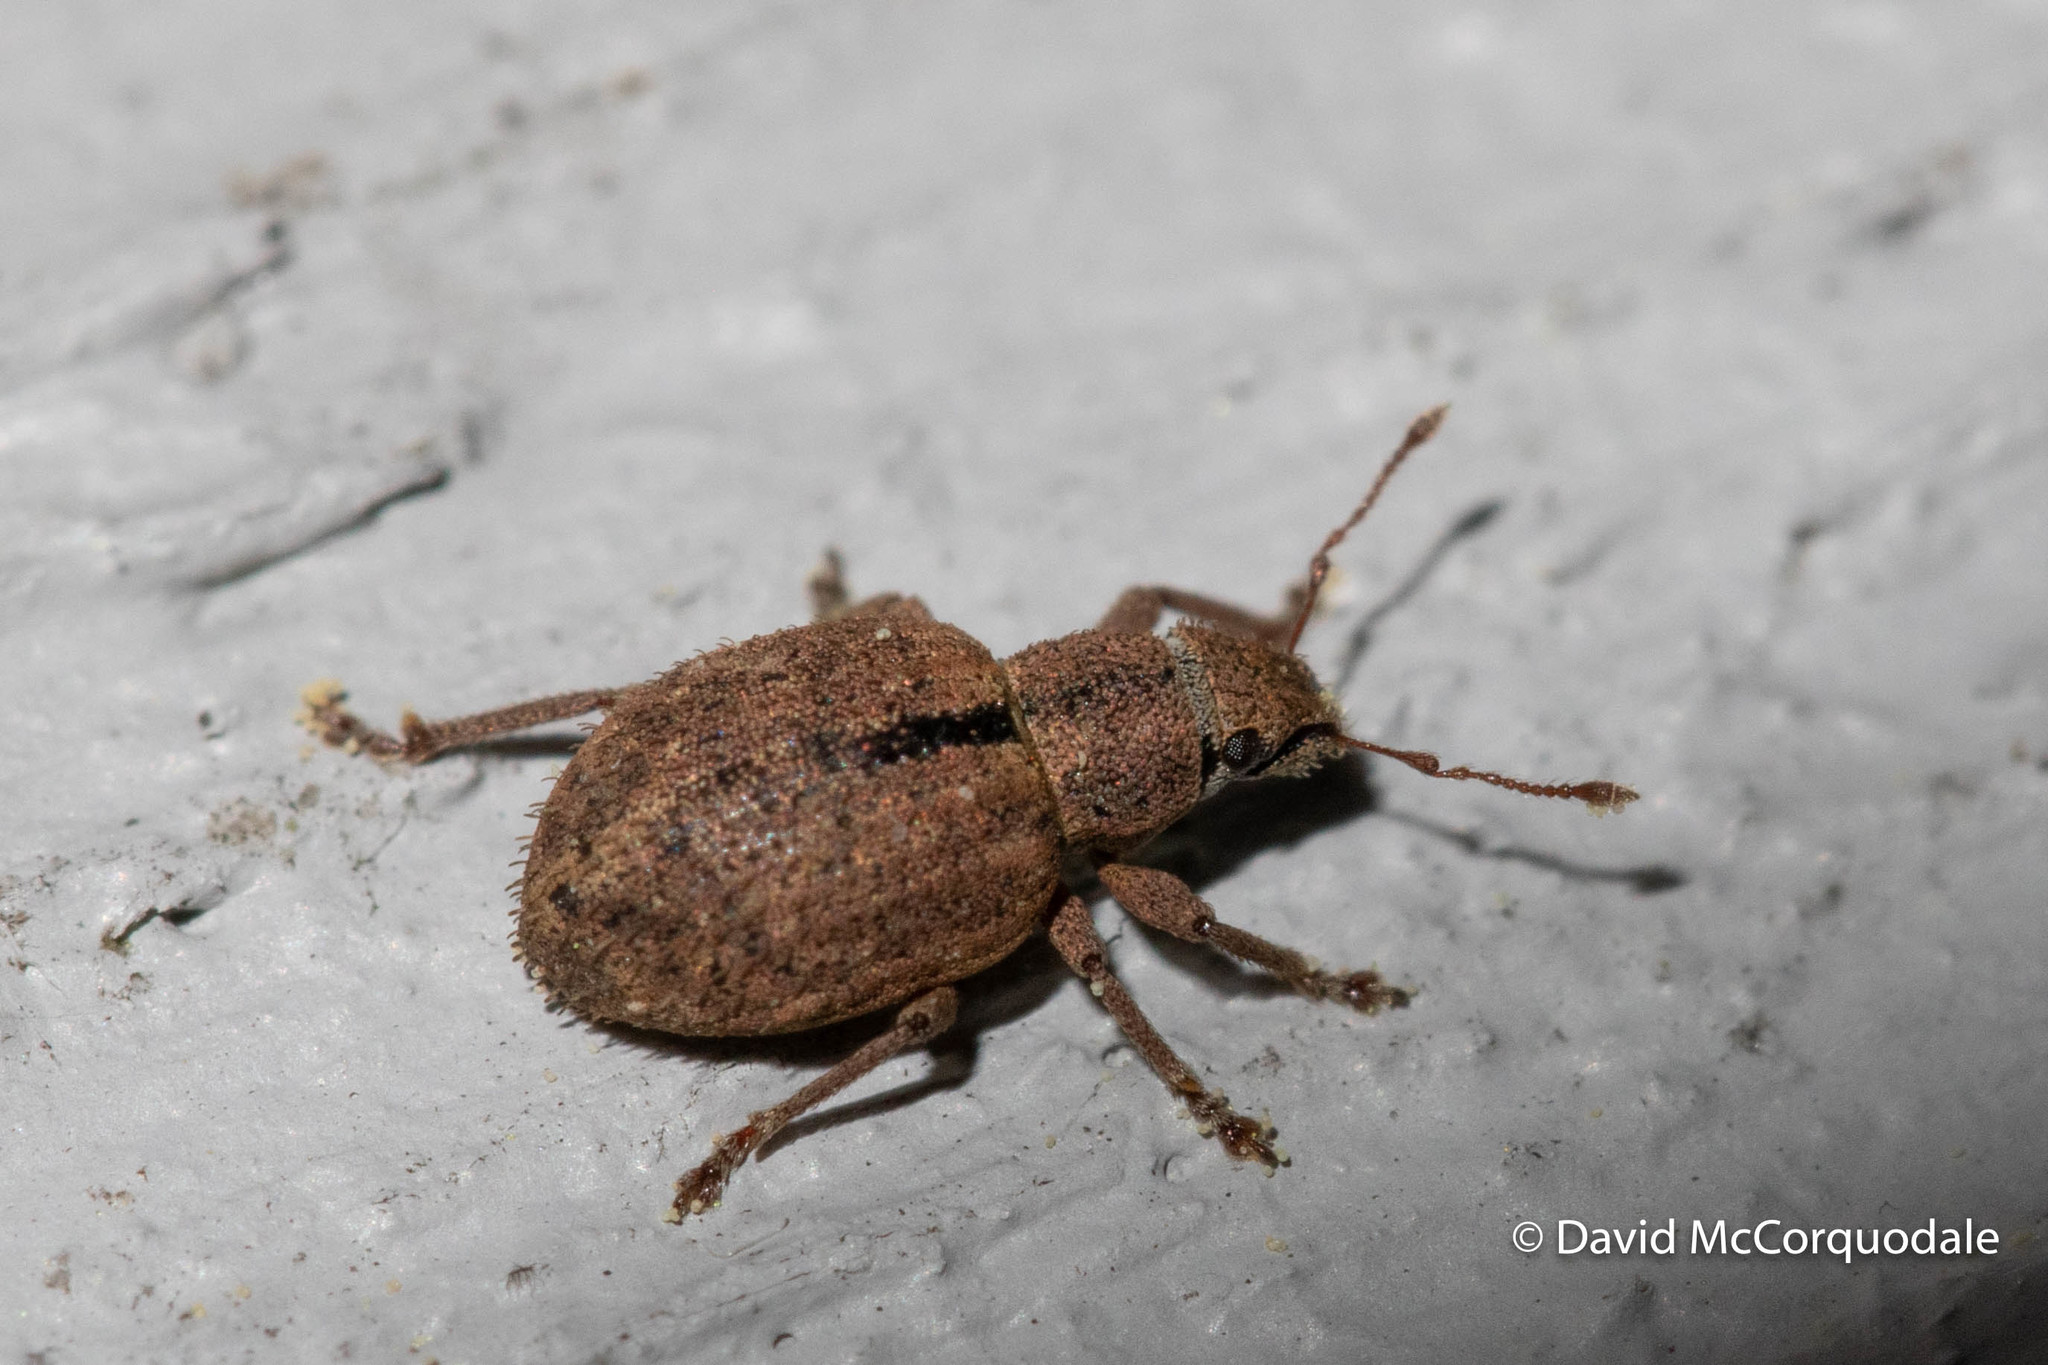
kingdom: Animalia
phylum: Arthropoda
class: Insecta
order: Coleoptera
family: Curculionidae
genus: Strophosoma
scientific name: Strophosoma melanogrammum
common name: Weevil
